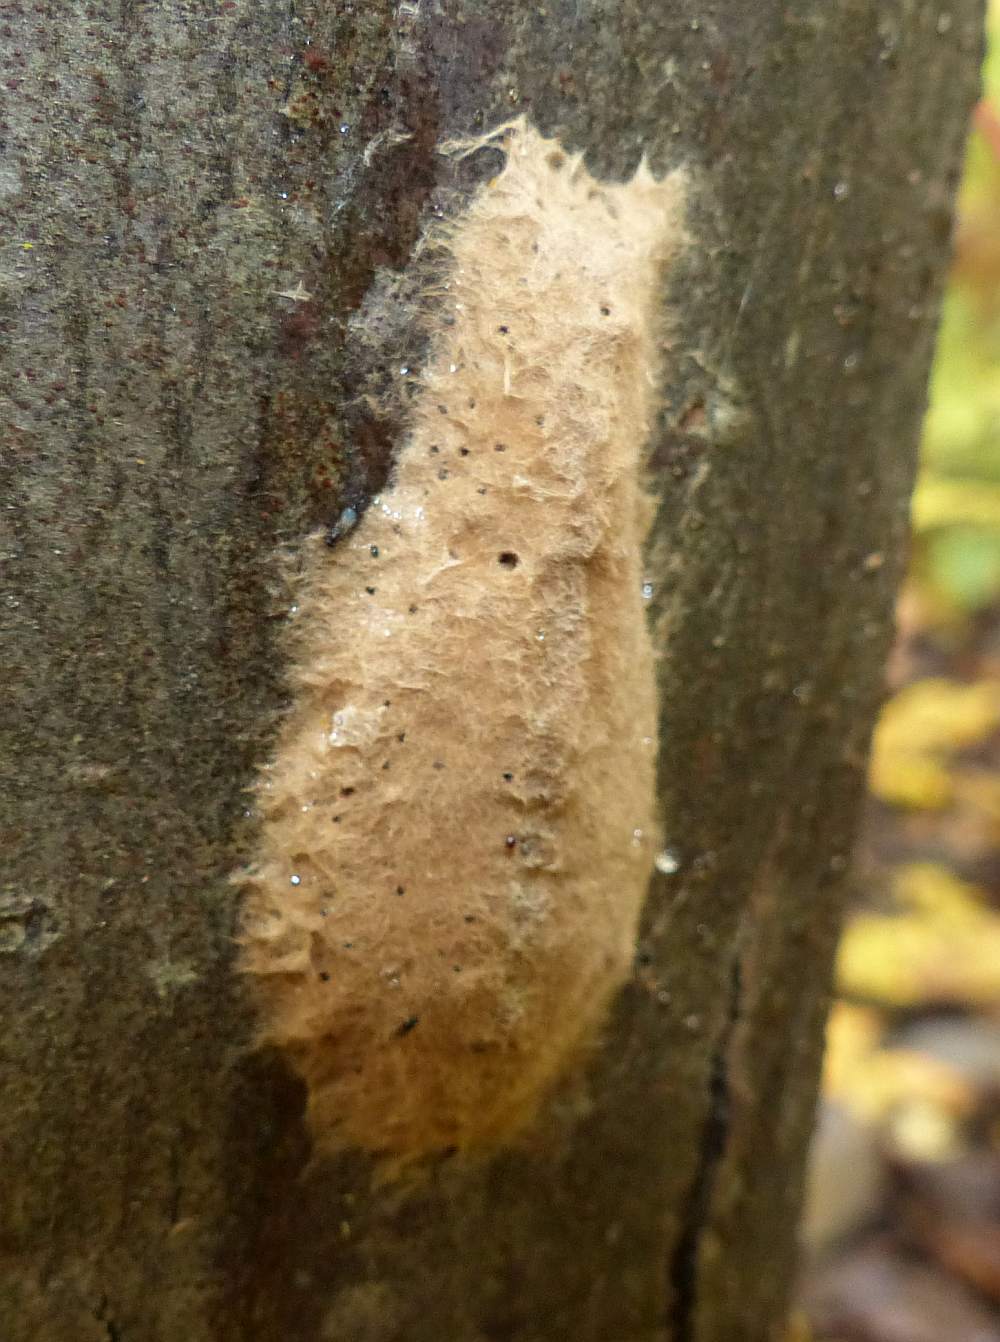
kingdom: Animalia
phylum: Arthropoda
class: Insecta
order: Lepidoptera
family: Erebidae
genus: Lymantria
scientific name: Lymantria dispar
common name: Gypsy moth
